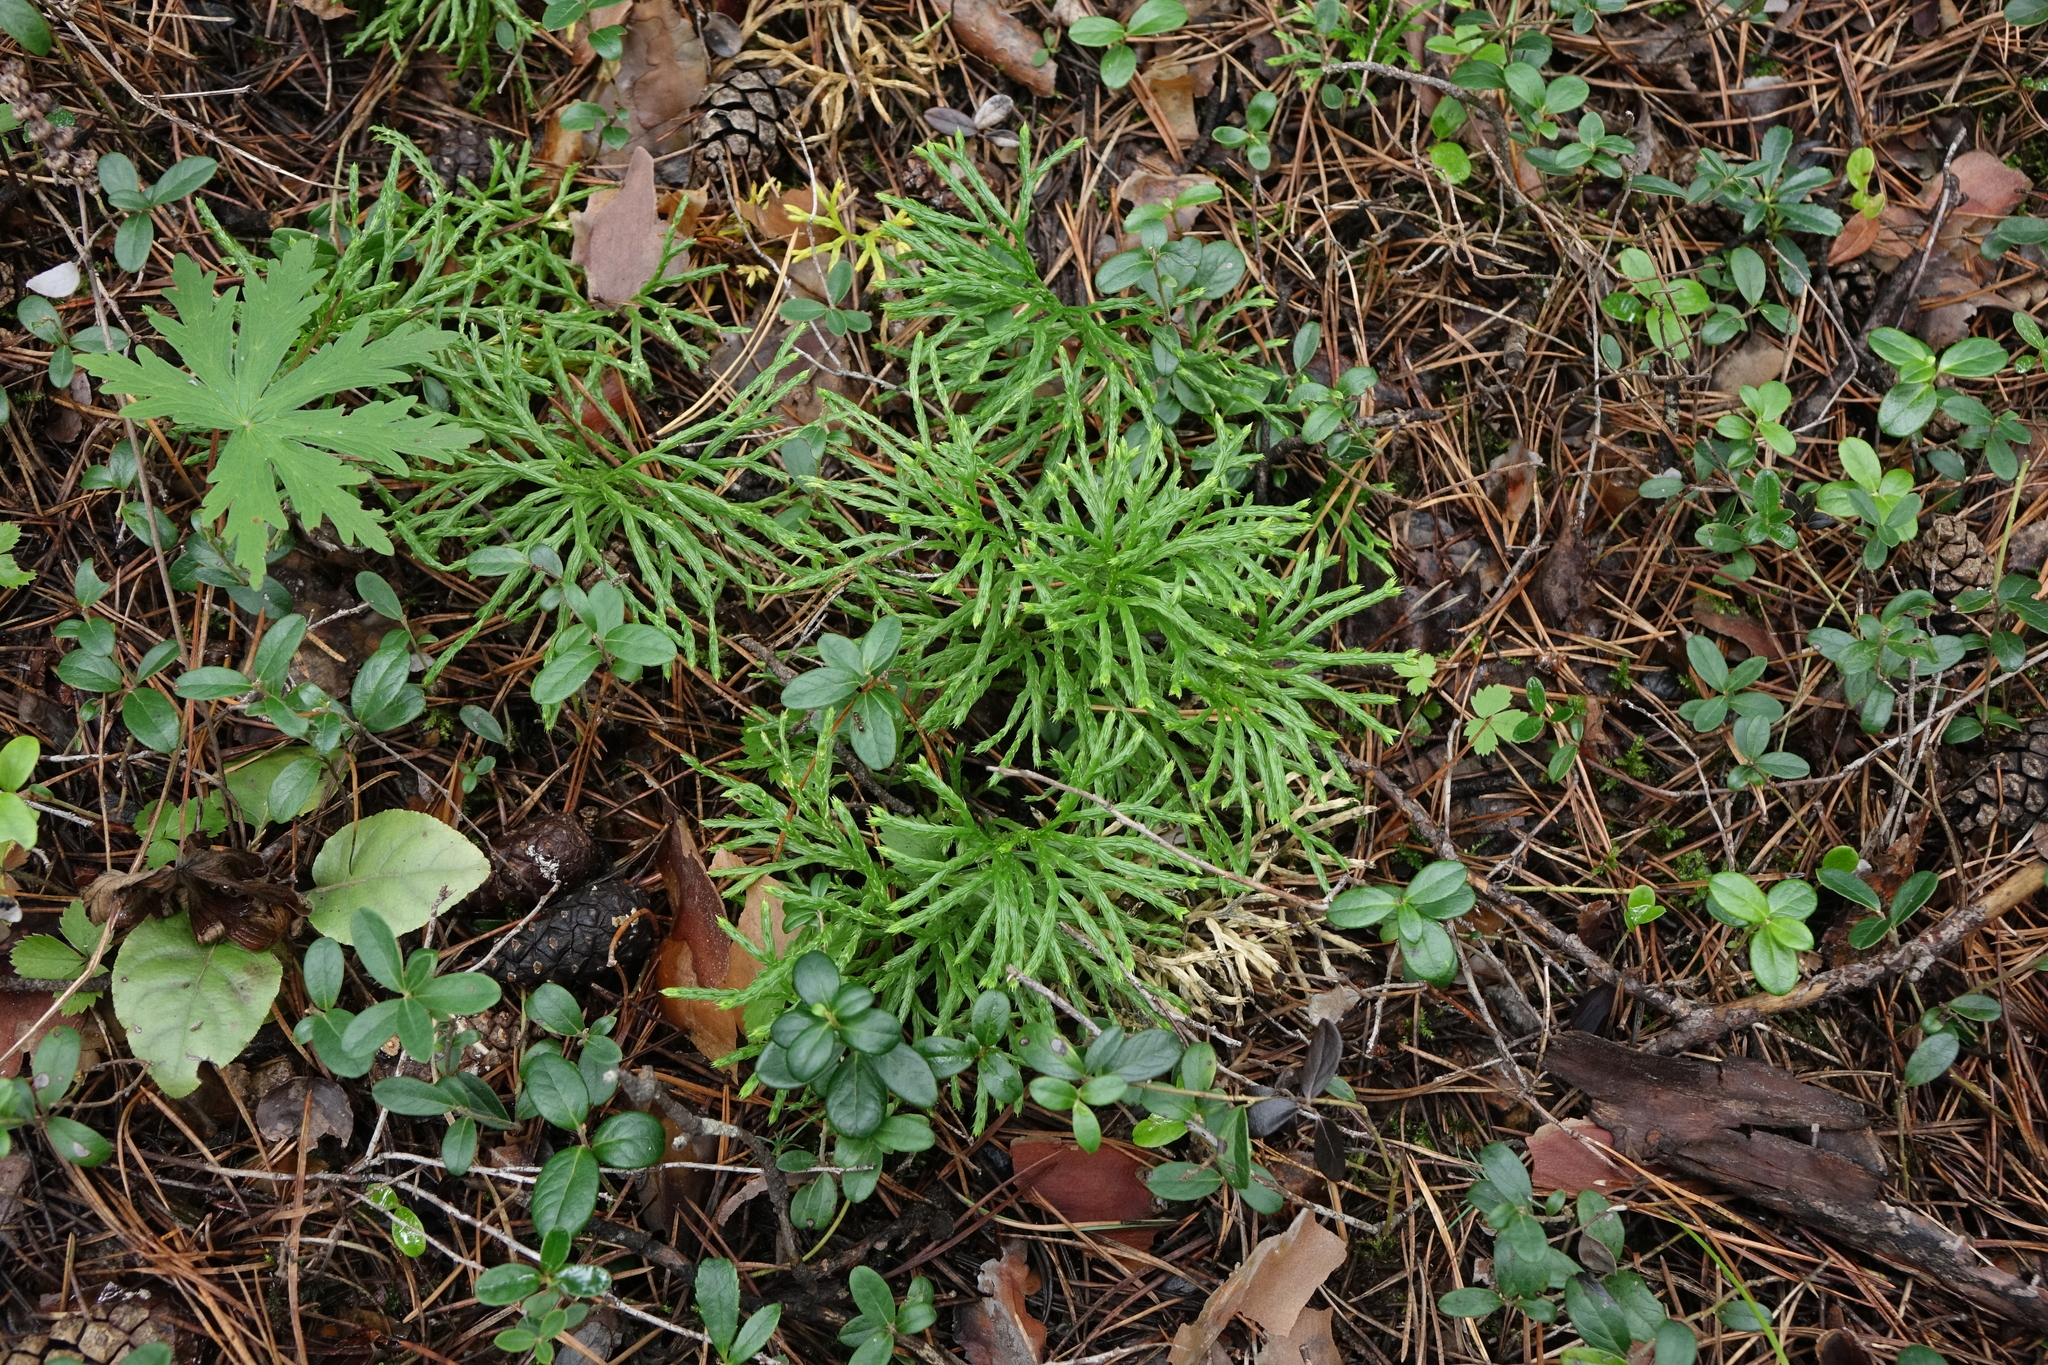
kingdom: Plantae
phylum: Tracheophyta
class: Lycopodiopsida
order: Lycopodiales
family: Lycopodiaceae
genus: Diphasiastrum
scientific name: Diphasiastrum complanatum
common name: Northern running-pine
